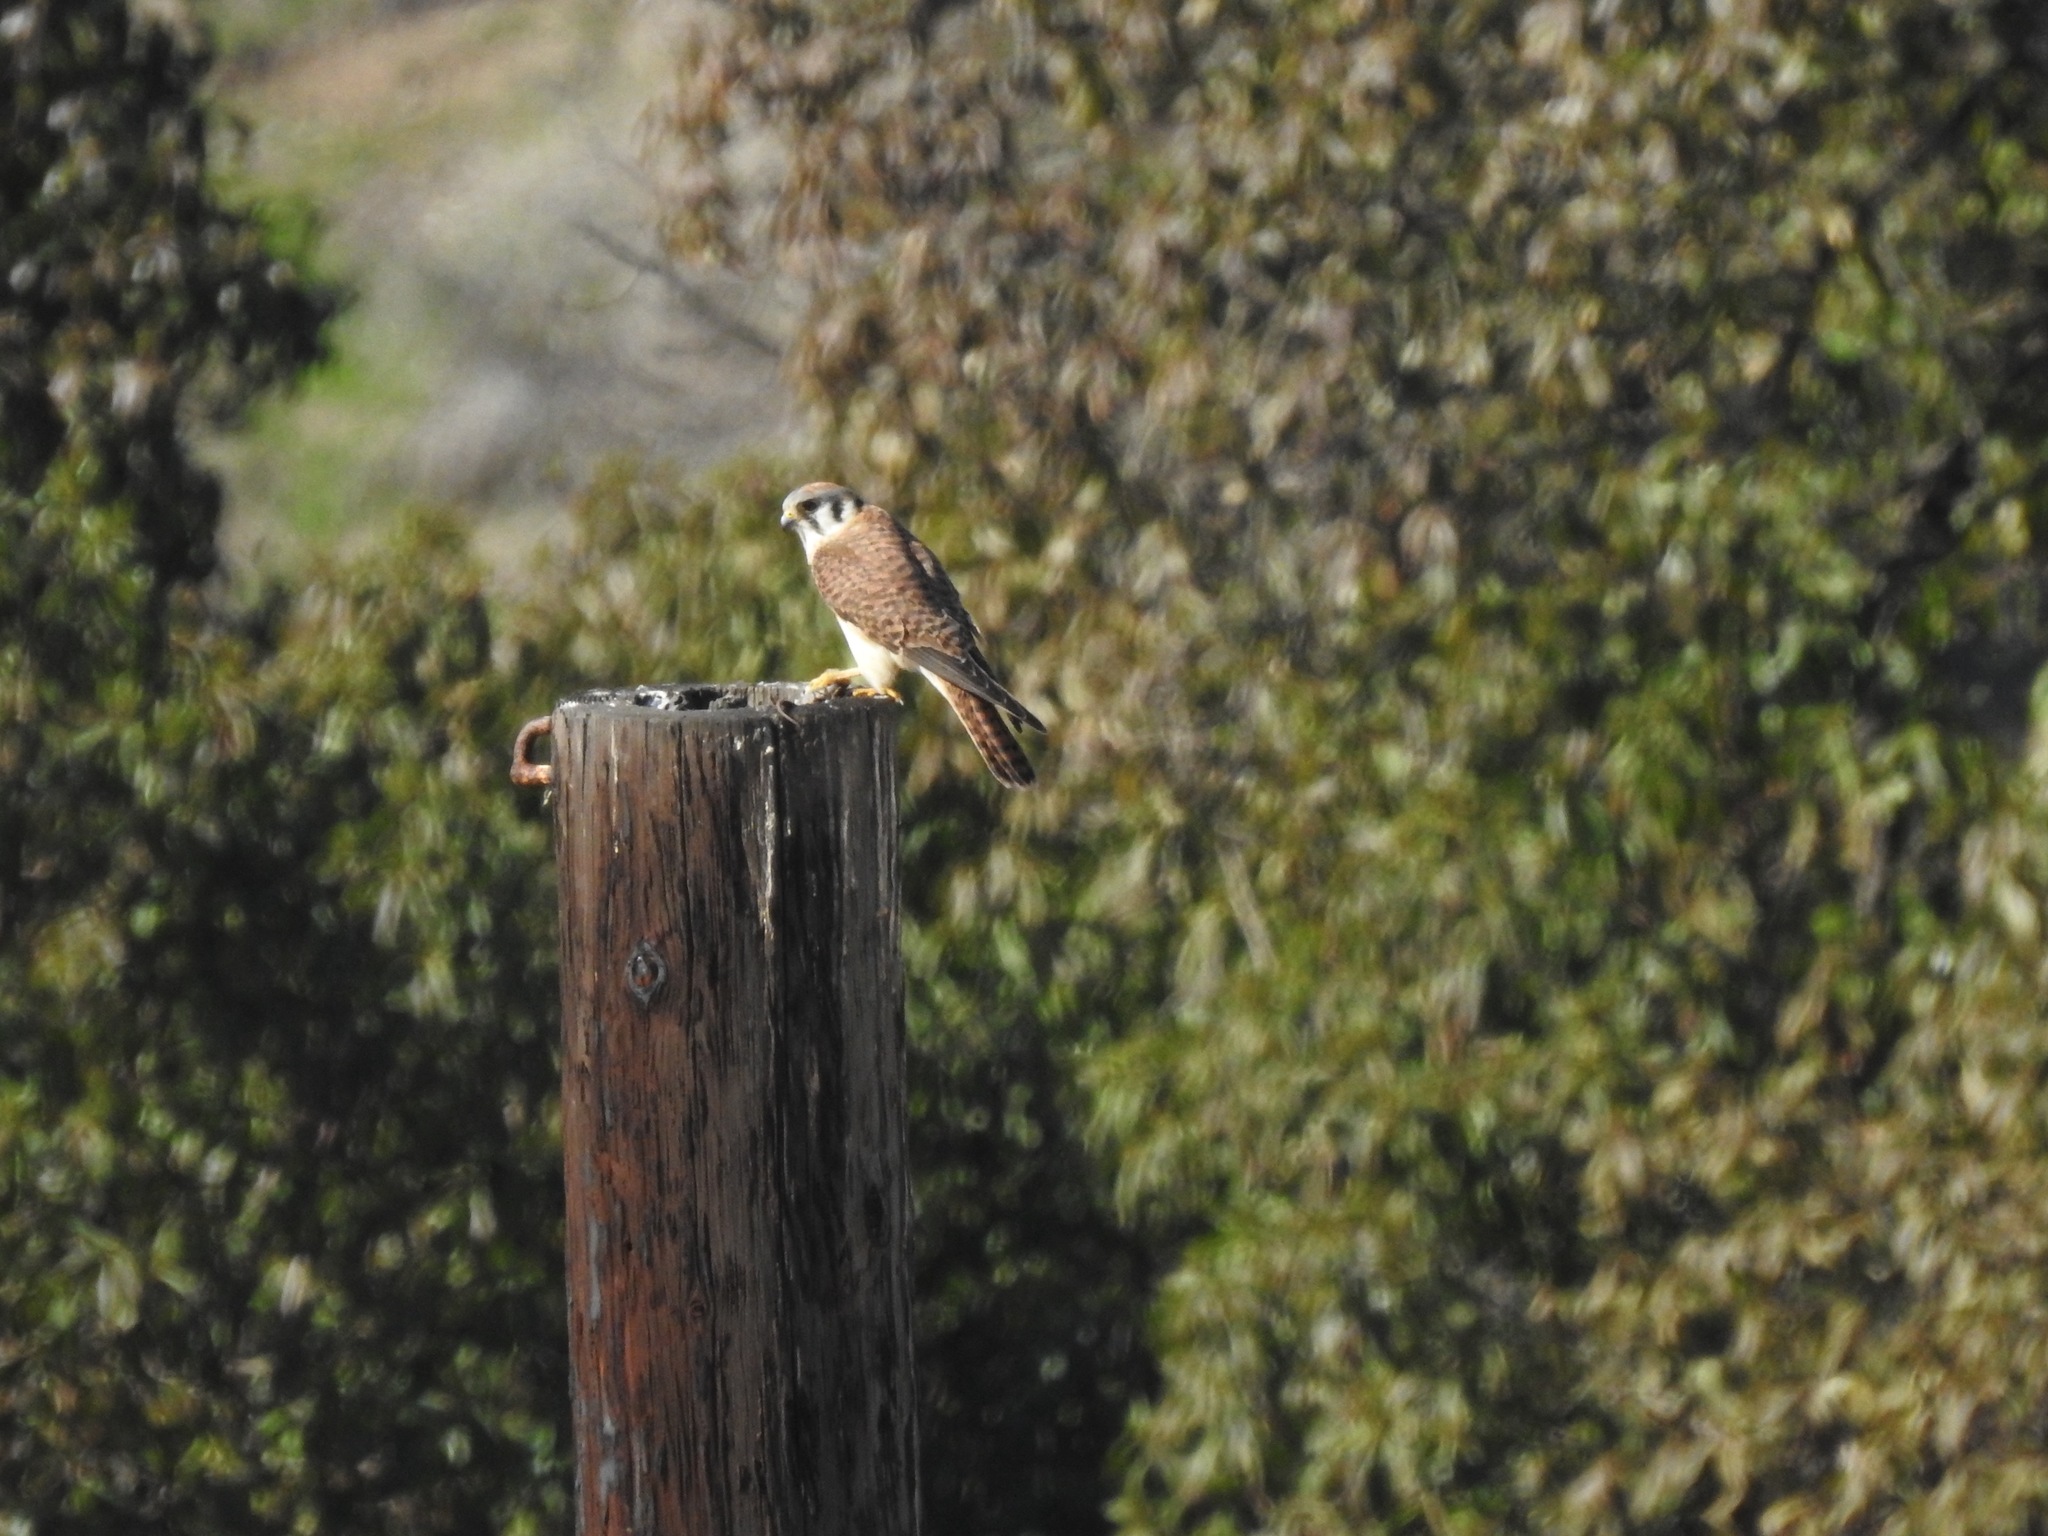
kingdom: Animalia
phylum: Chordata
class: Aves
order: Falconiformes
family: Falconidae
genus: Falco
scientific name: Falco sparverius
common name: American kestrel
